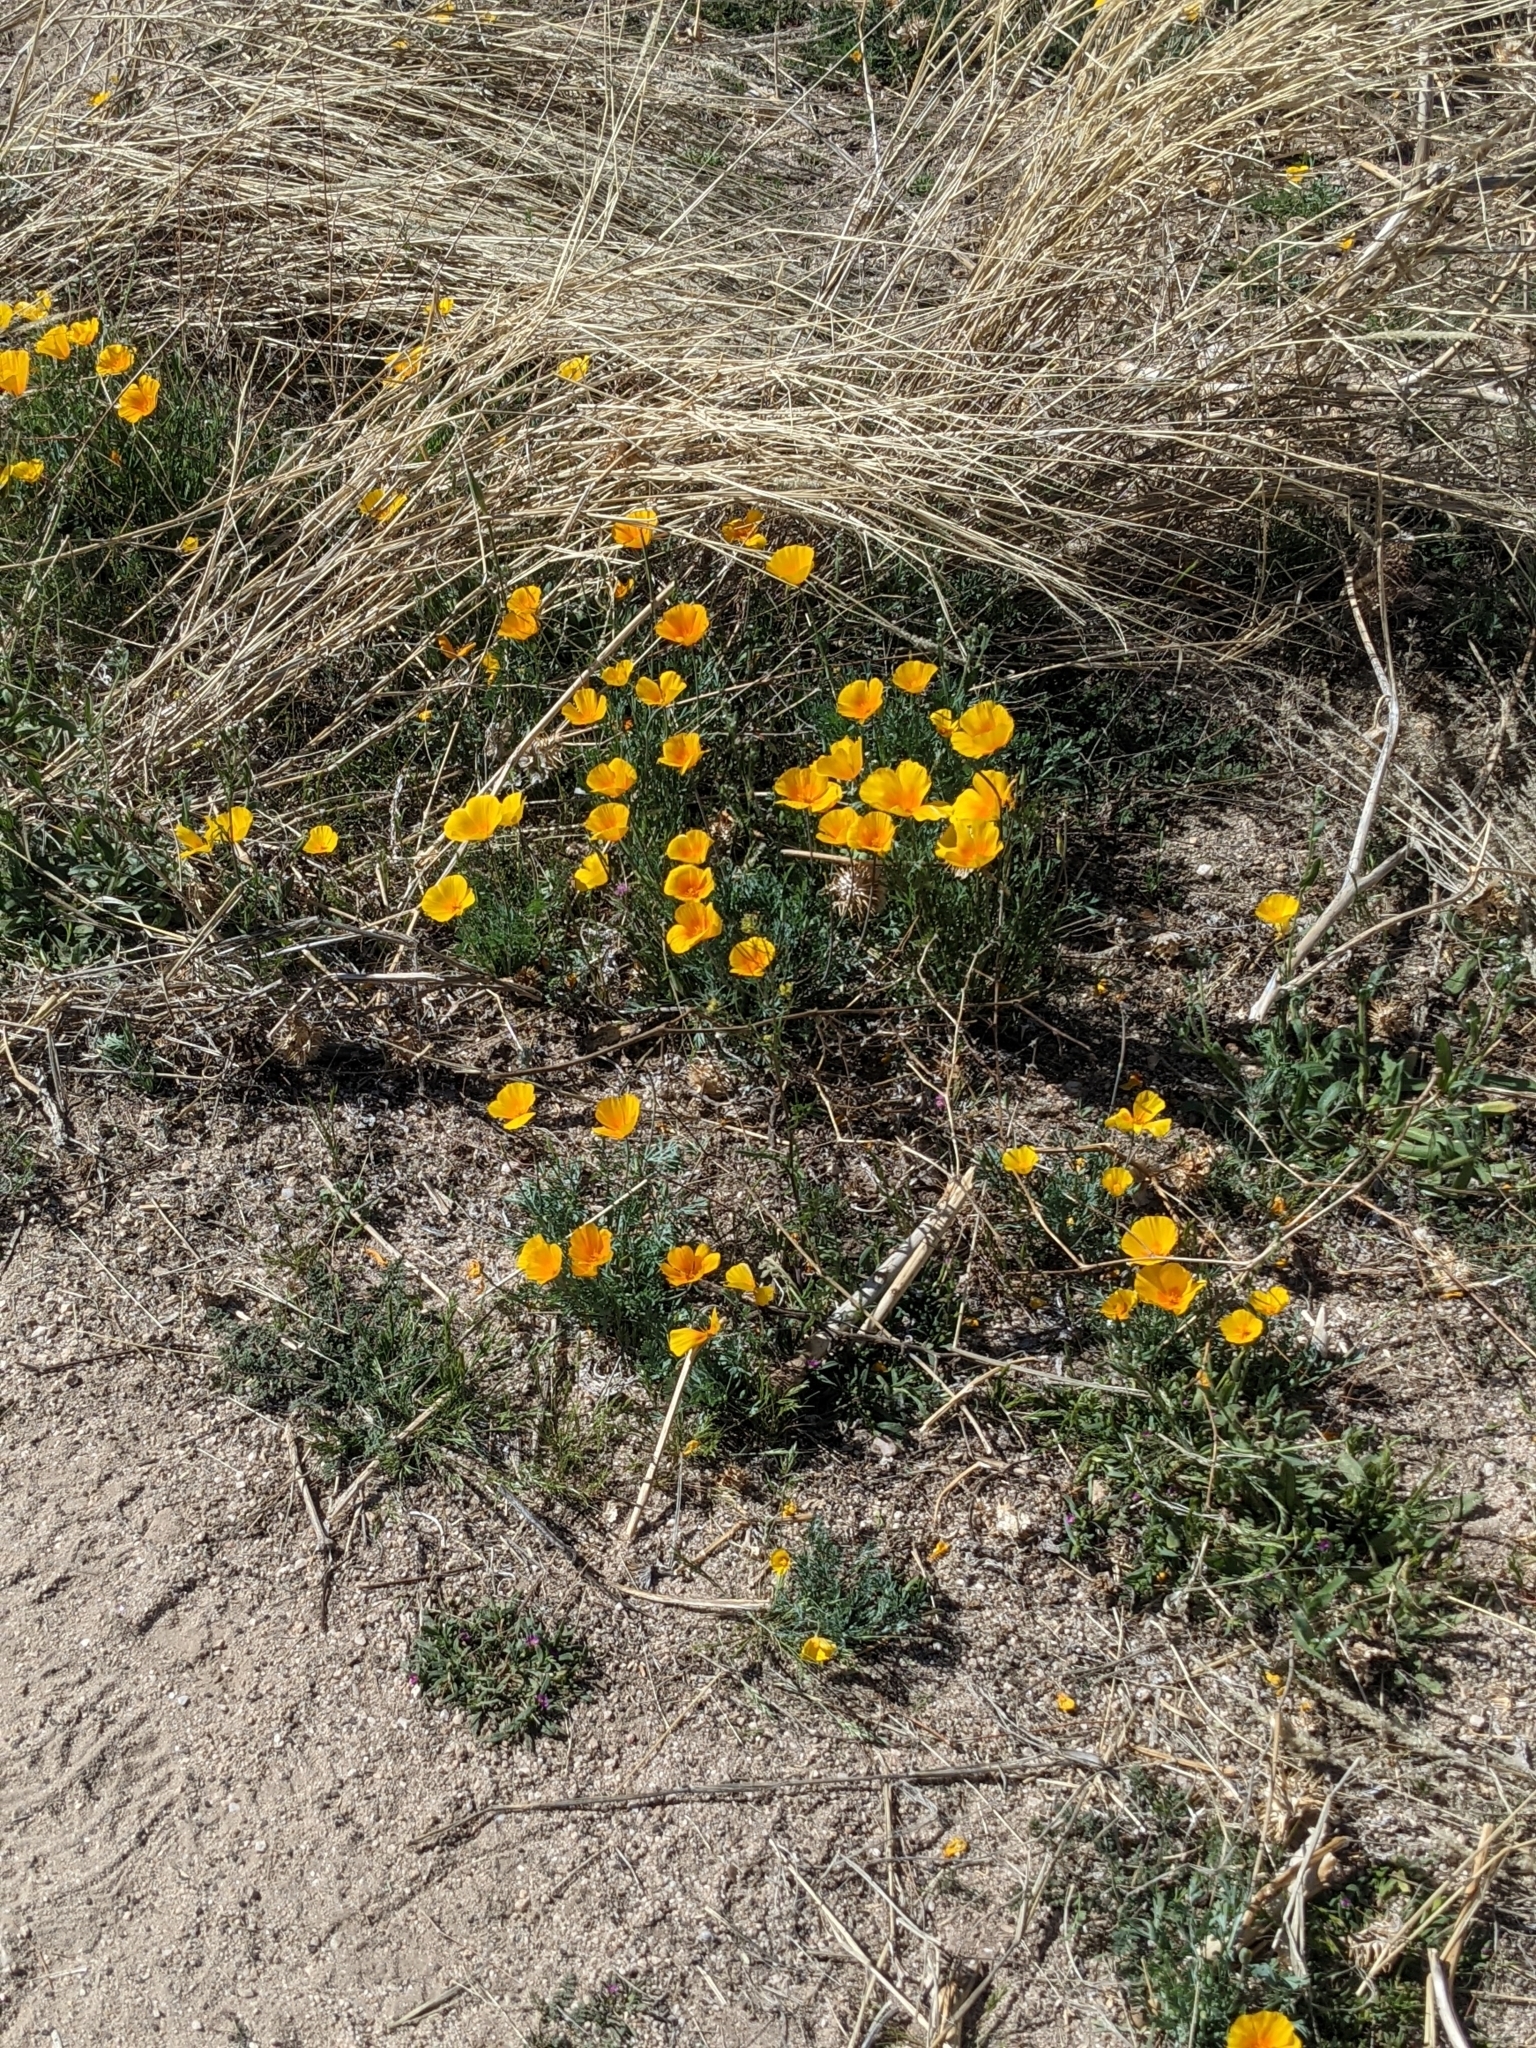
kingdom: Plantae
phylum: Tracheophyta
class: Magnoliopsida
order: Ranunculales
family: Papaveraceae
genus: Eschscholzia
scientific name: Eschscholzia californica
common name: California poppy
